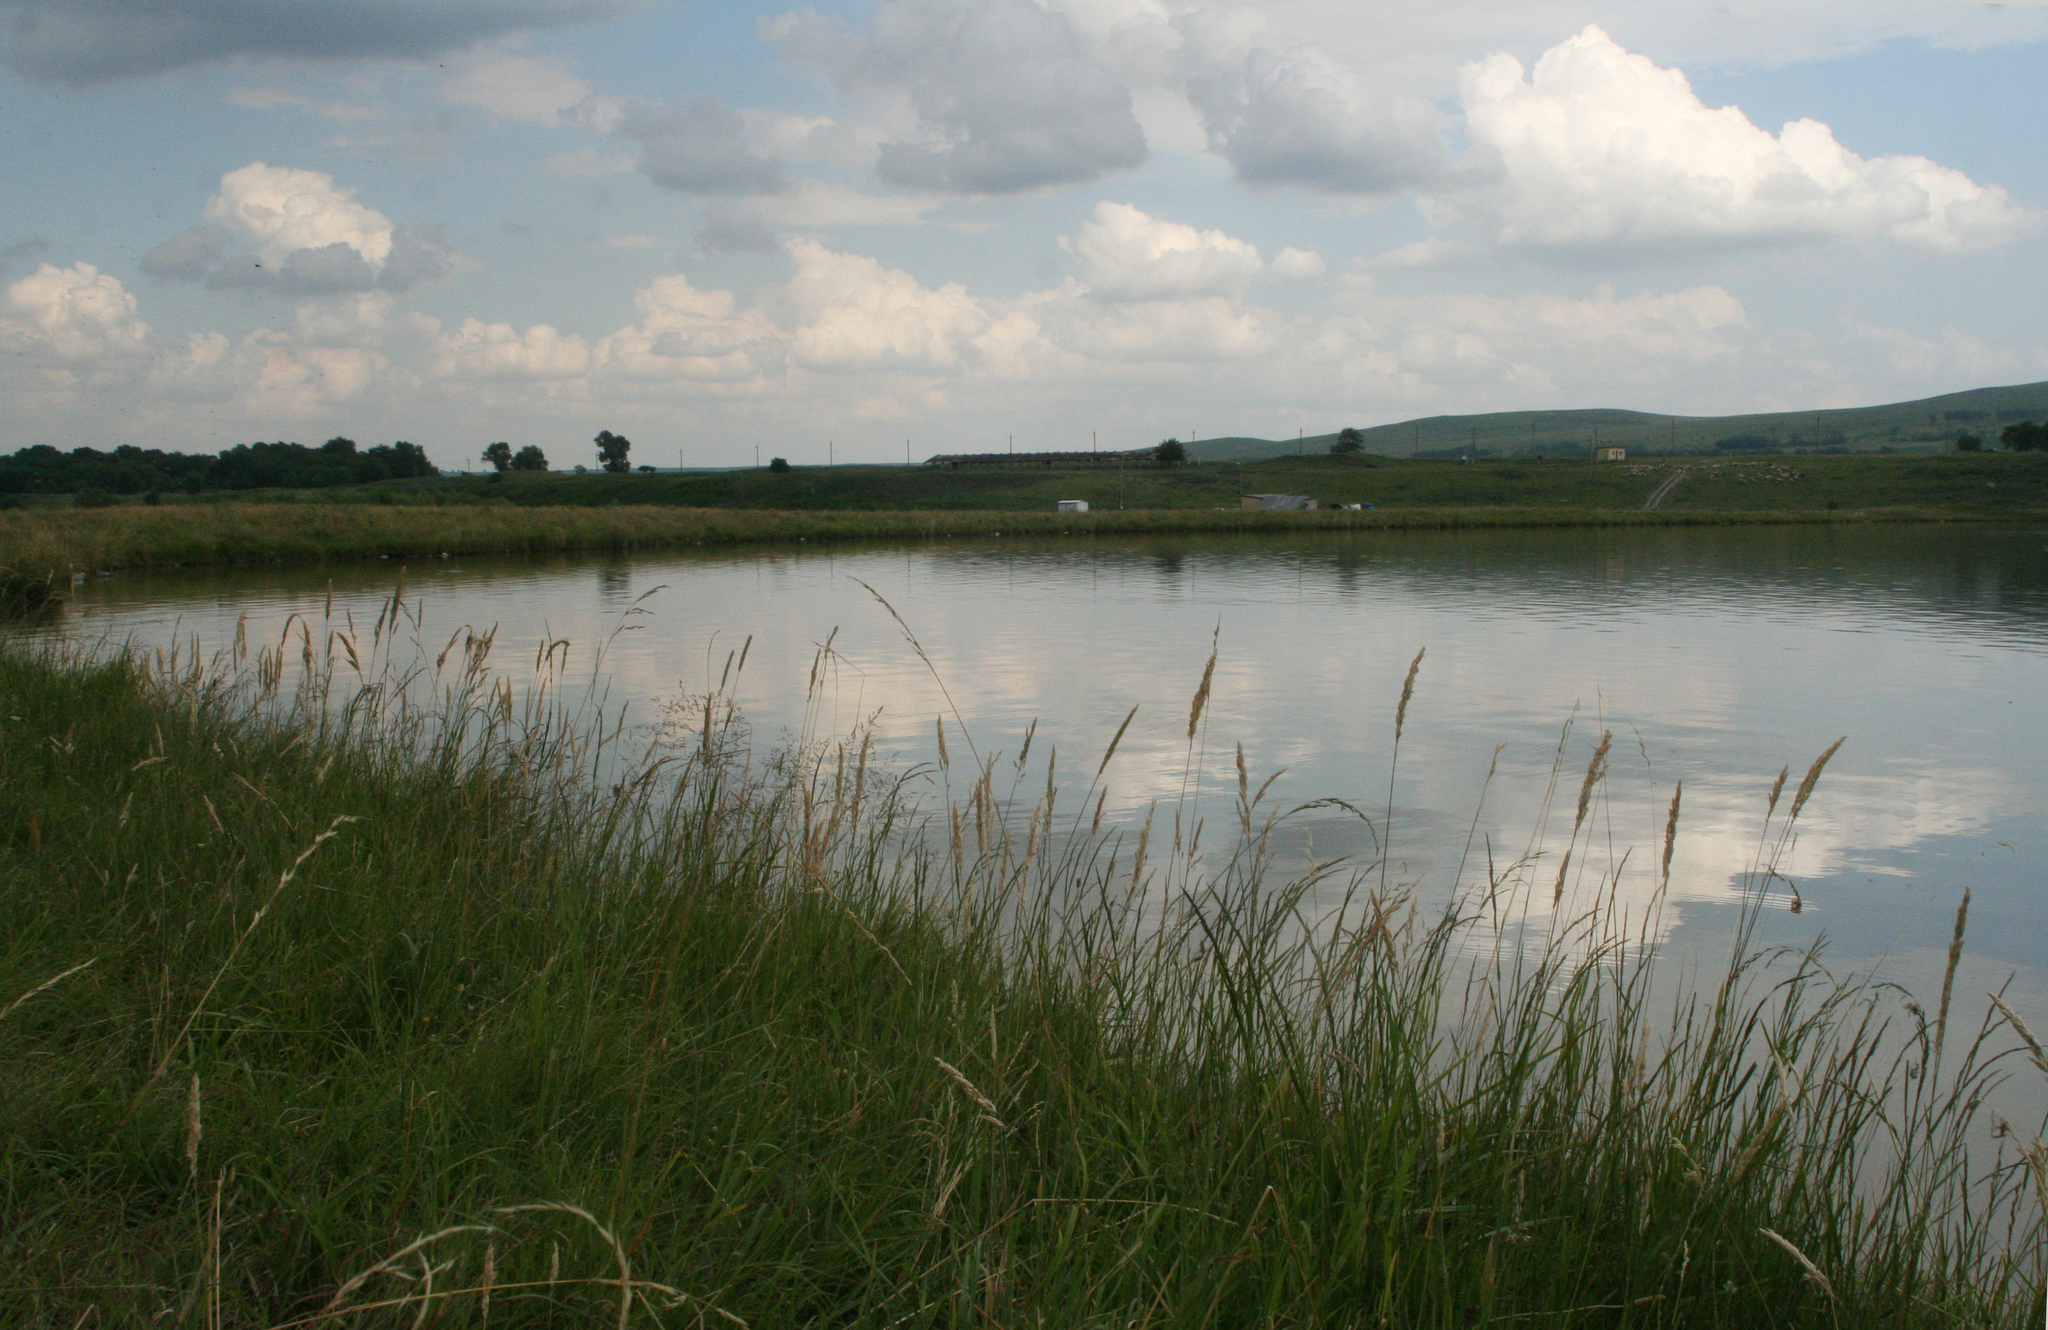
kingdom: Plantae
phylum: Tracheophyta
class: Liliopsida
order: Poales
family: Poaceae
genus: Phalaris
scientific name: Phalaris arundinacea
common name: Reed canary-grass
